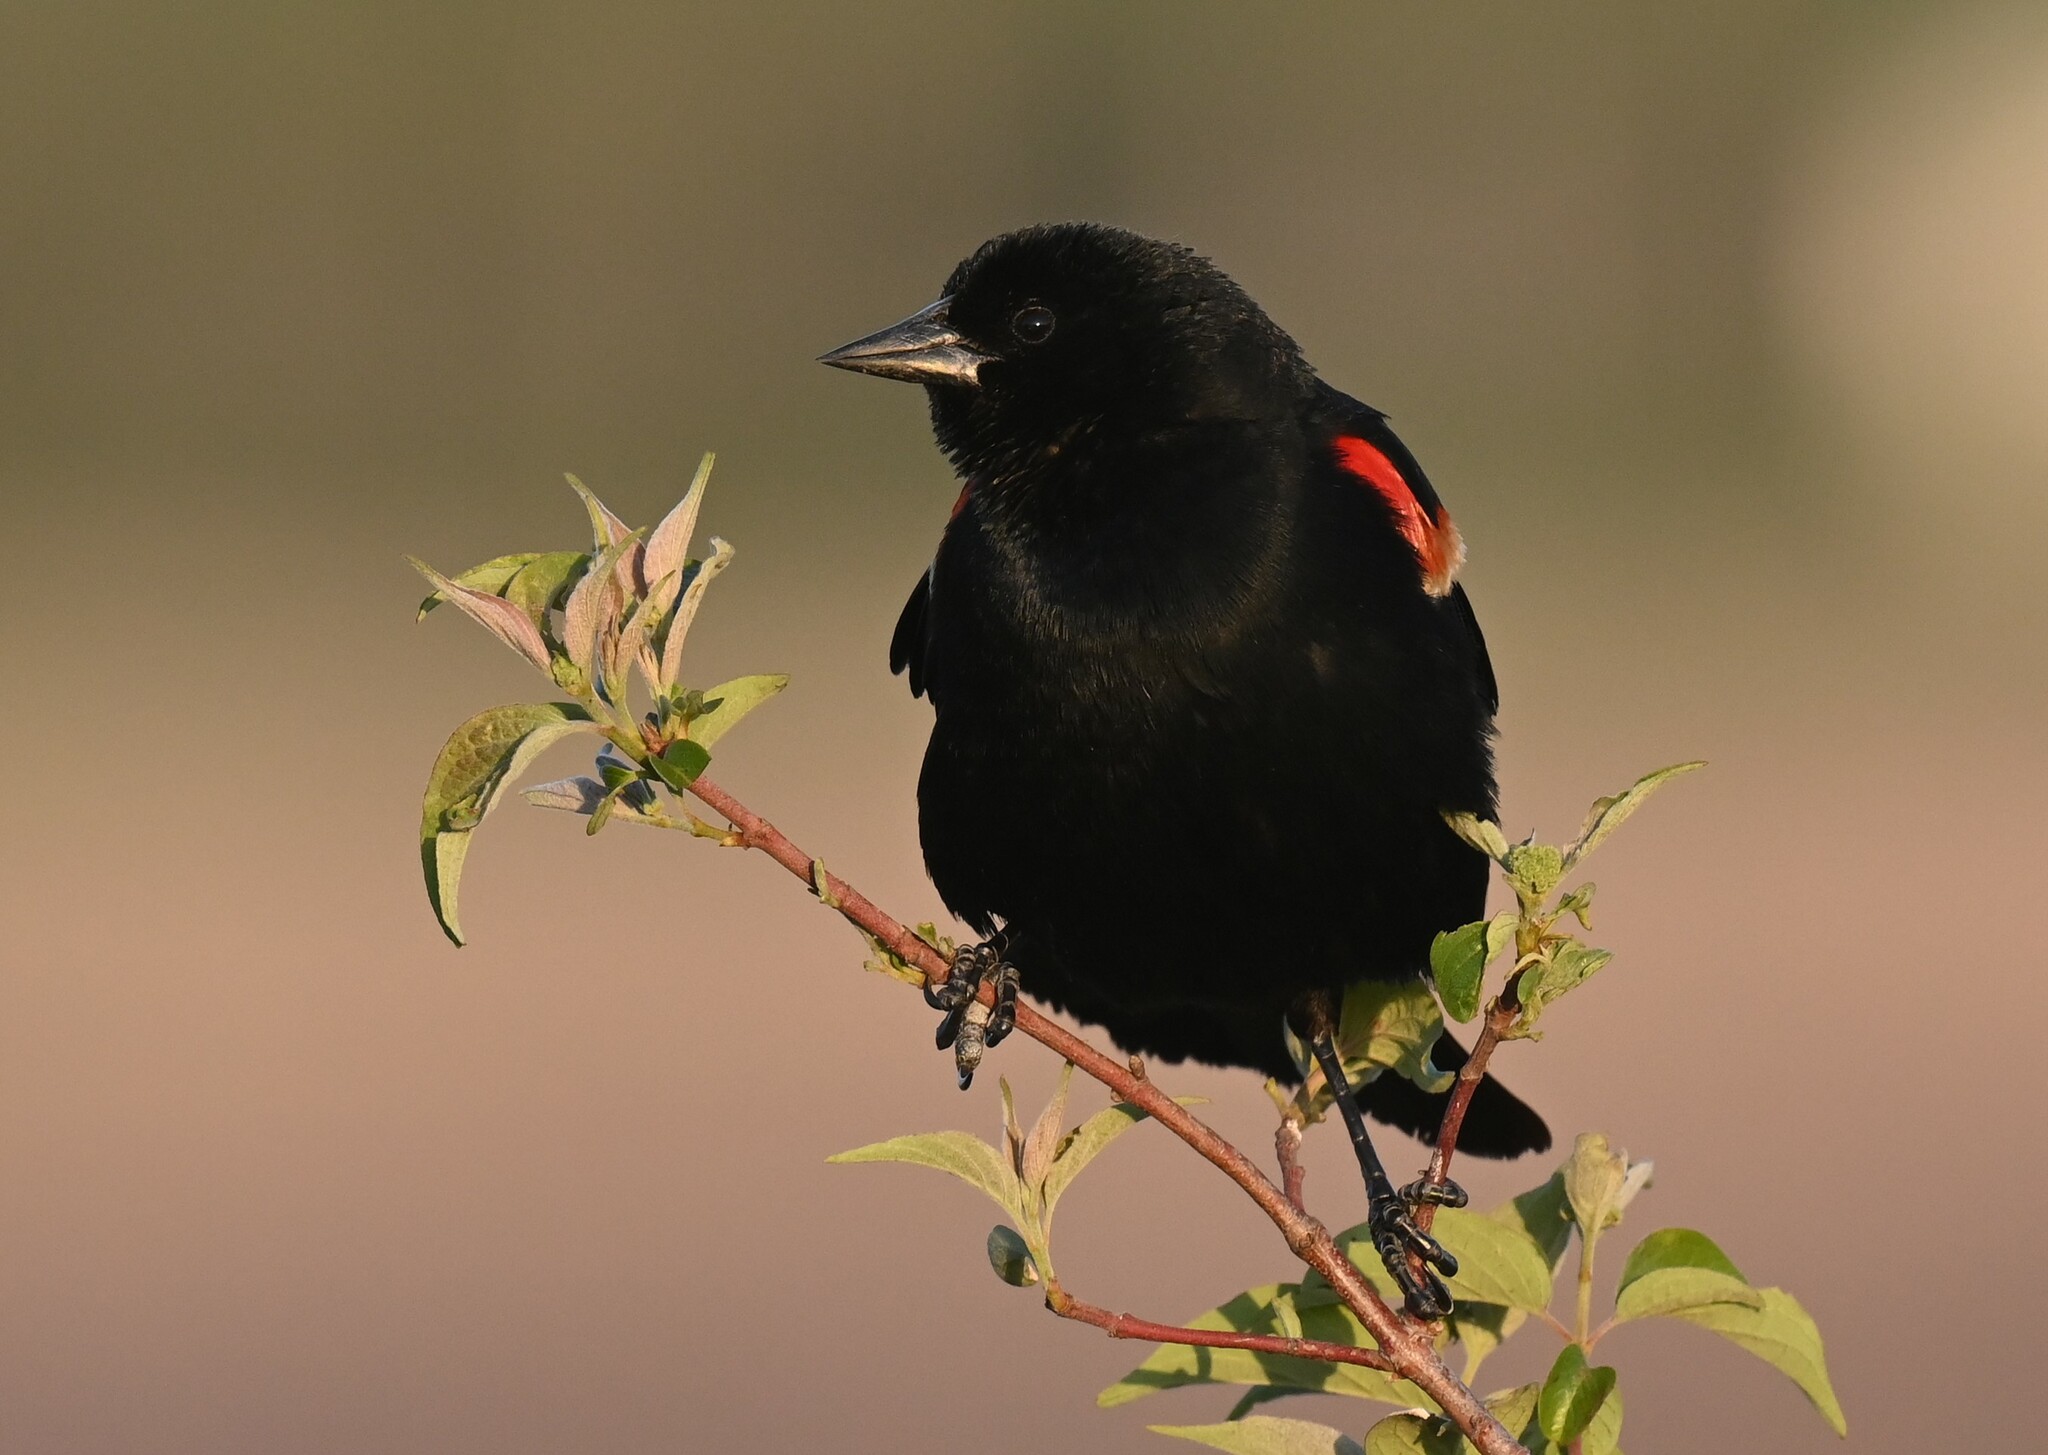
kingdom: Animalia
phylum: Chordata
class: Aves
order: Passeriformes
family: Icteridae
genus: Agelaius
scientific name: Agelaius phoeniceus
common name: Red-winged blackbird
